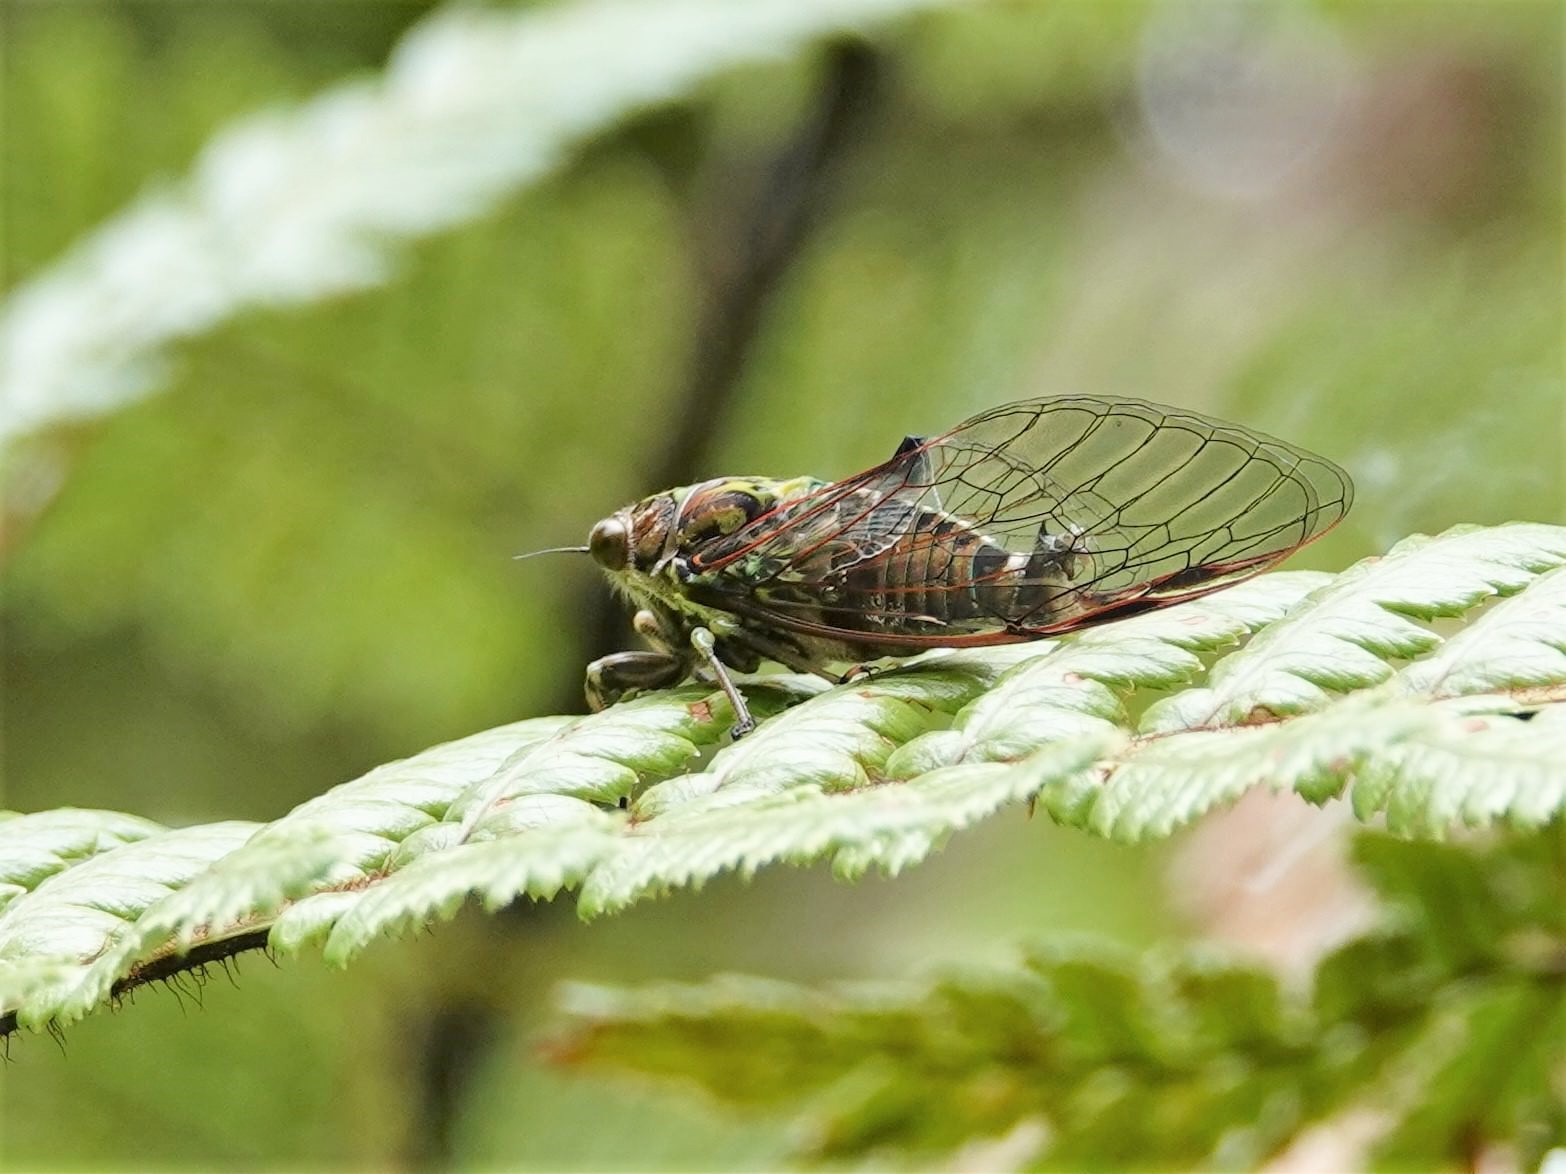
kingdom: Animalia
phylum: Arthropoda
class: Insecta
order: Hemiptera
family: Cicadidae
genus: Kikihia
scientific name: Kikihia cauta
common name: Greater bronze cicada
